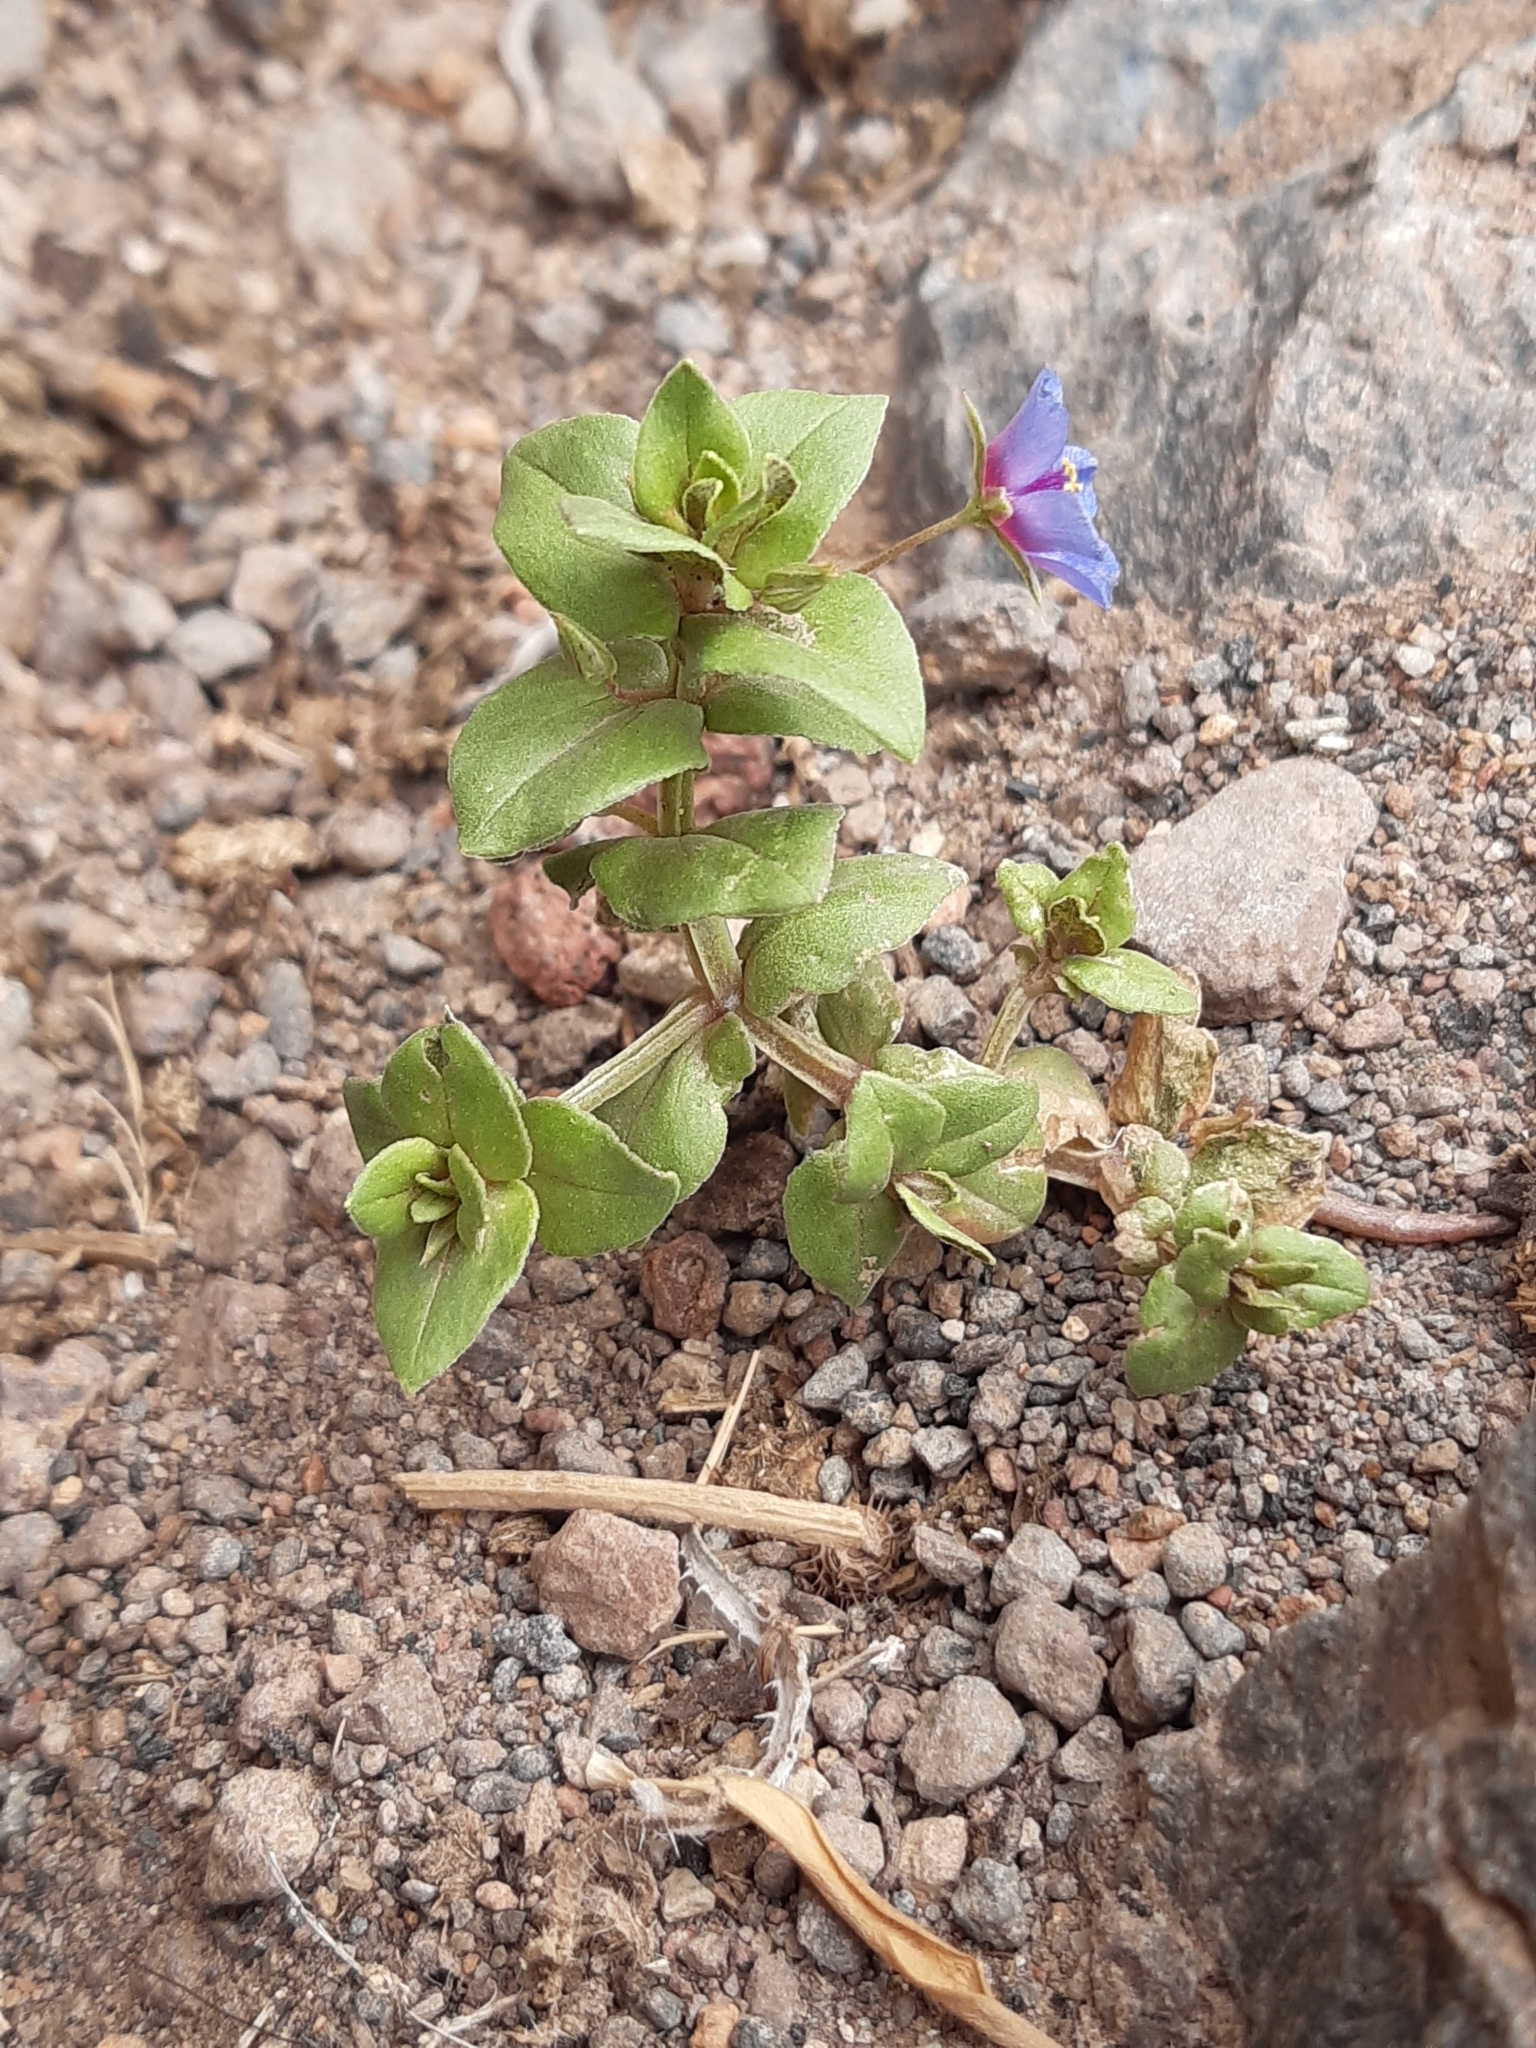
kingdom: Plantae
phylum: Tracheophyta
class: Magnoliopsida
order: Ericales
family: Primulaceae
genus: Lysimachia
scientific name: Lysimachia loeflingii
